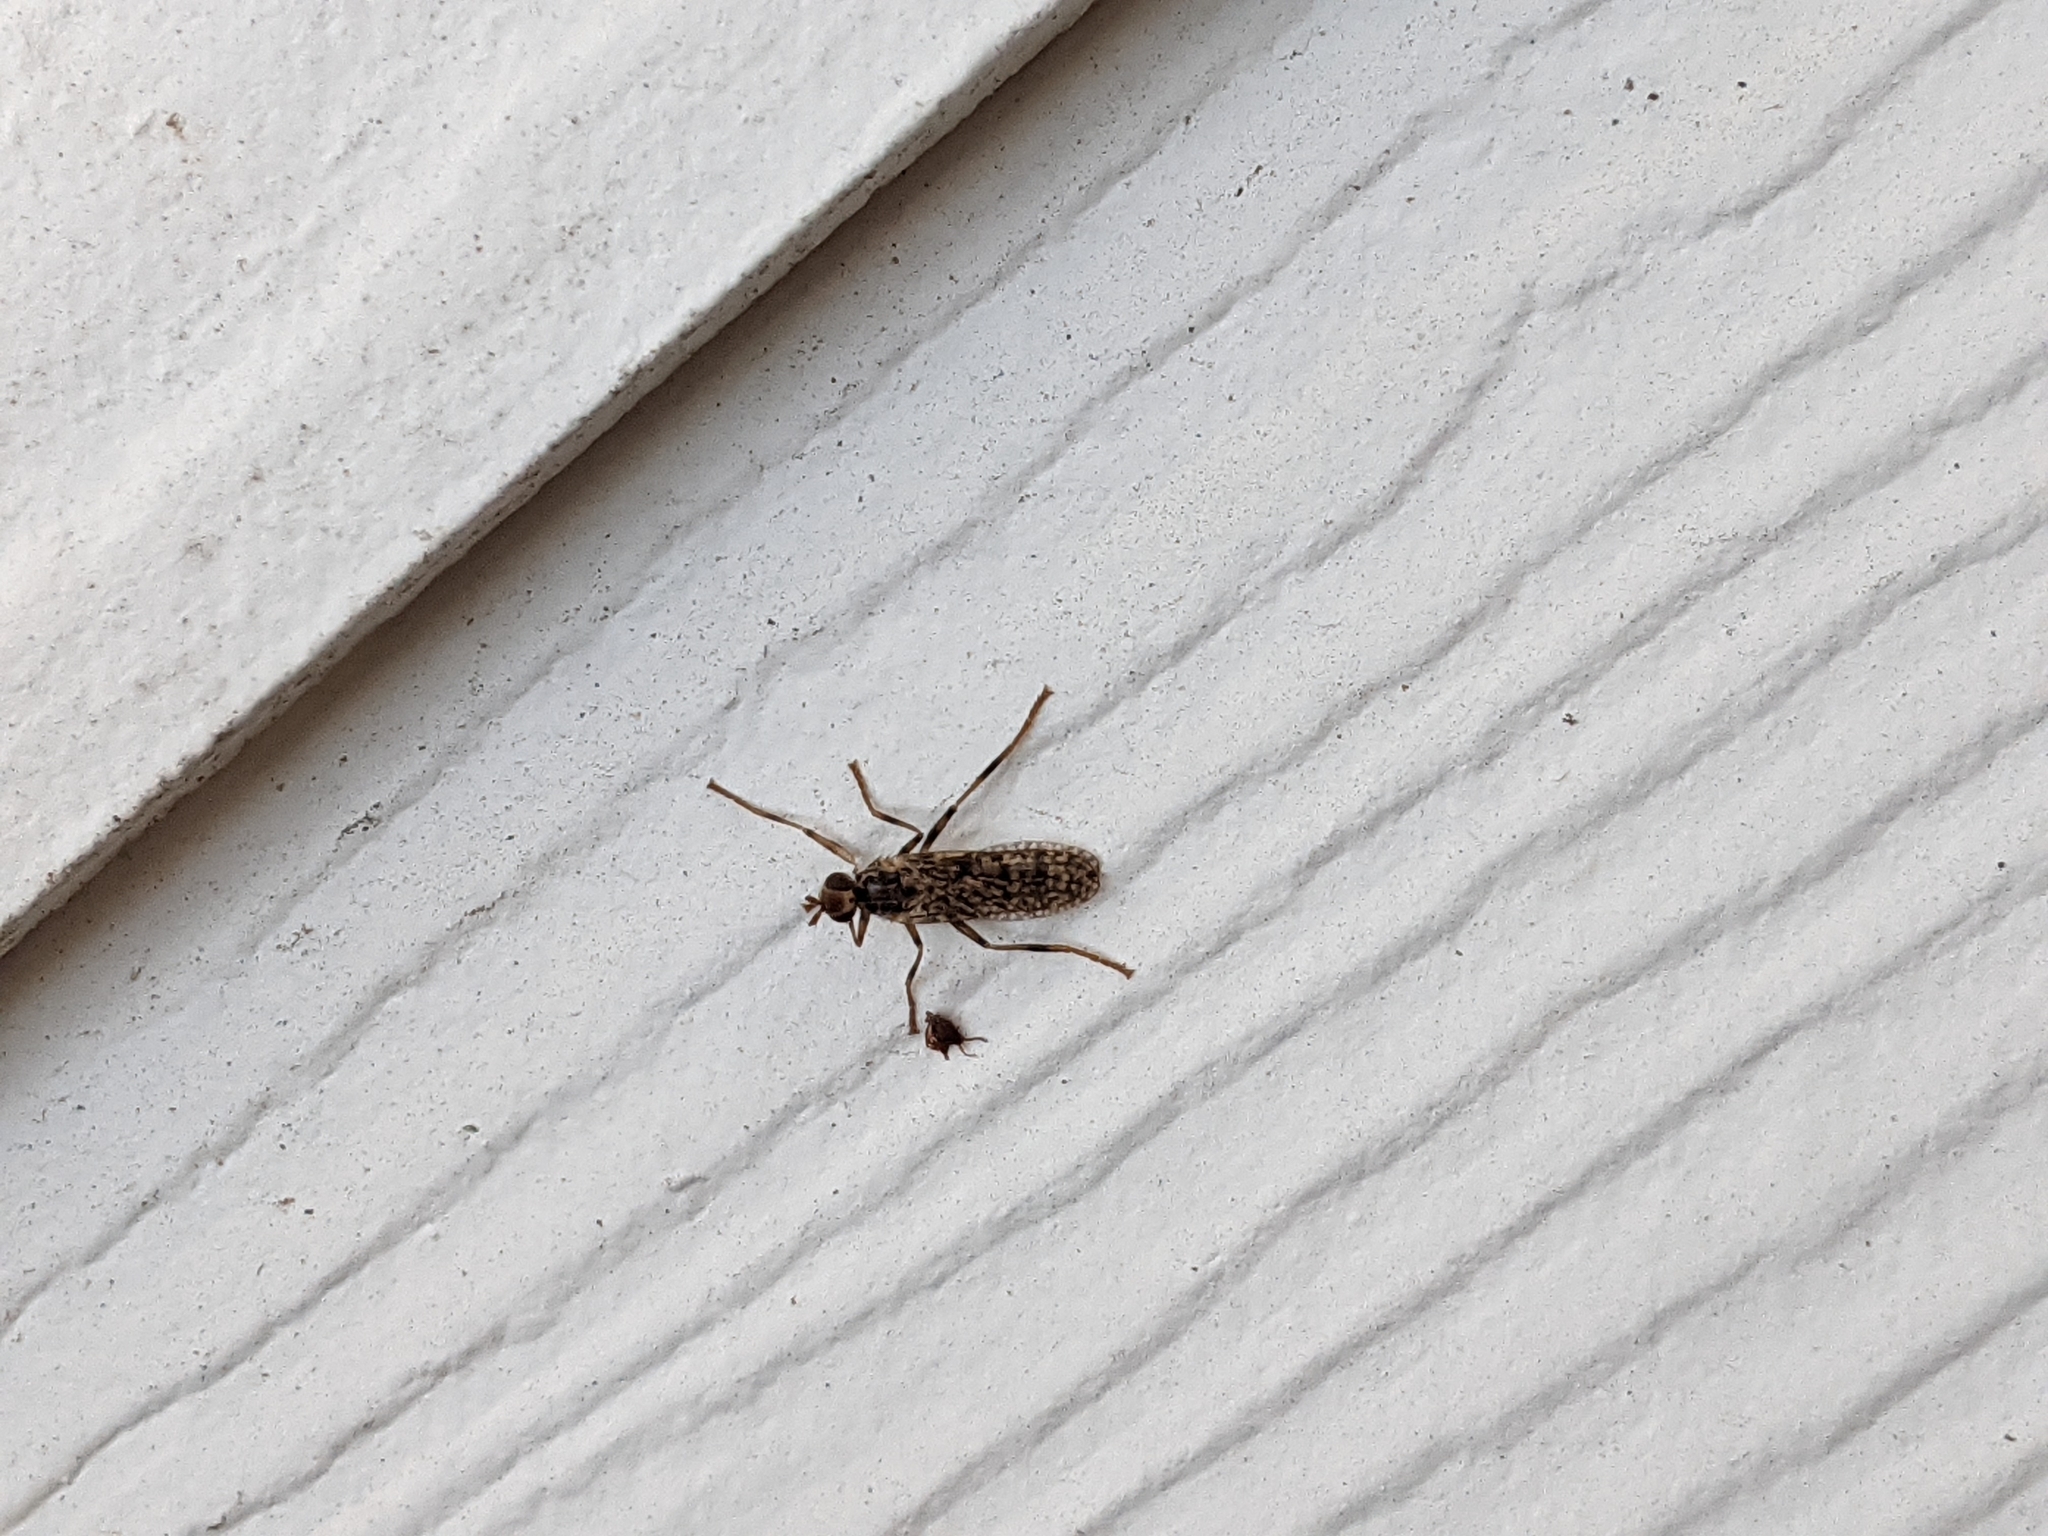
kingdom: Animalia
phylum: Arthropoda
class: Insecta
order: Diptera
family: Pyrgotidae
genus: Boreothrinax
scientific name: Boreothrinax
